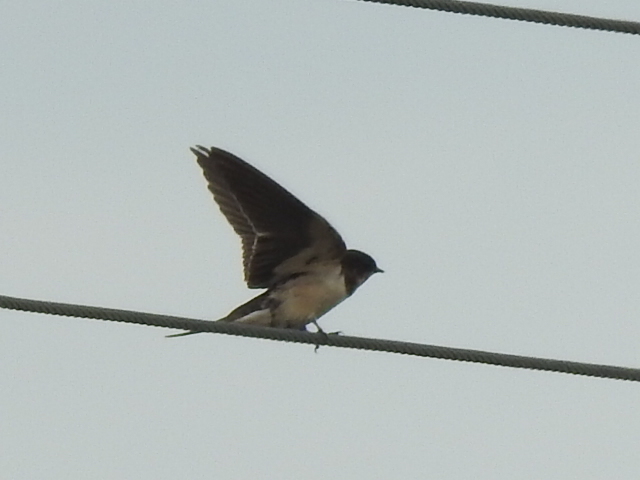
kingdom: Animalia
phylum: Chordata
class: Aves
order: Passeriformes
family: Hirundinidae
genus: Hirundo
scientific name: Hirundo rustica
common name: Barn swallow
